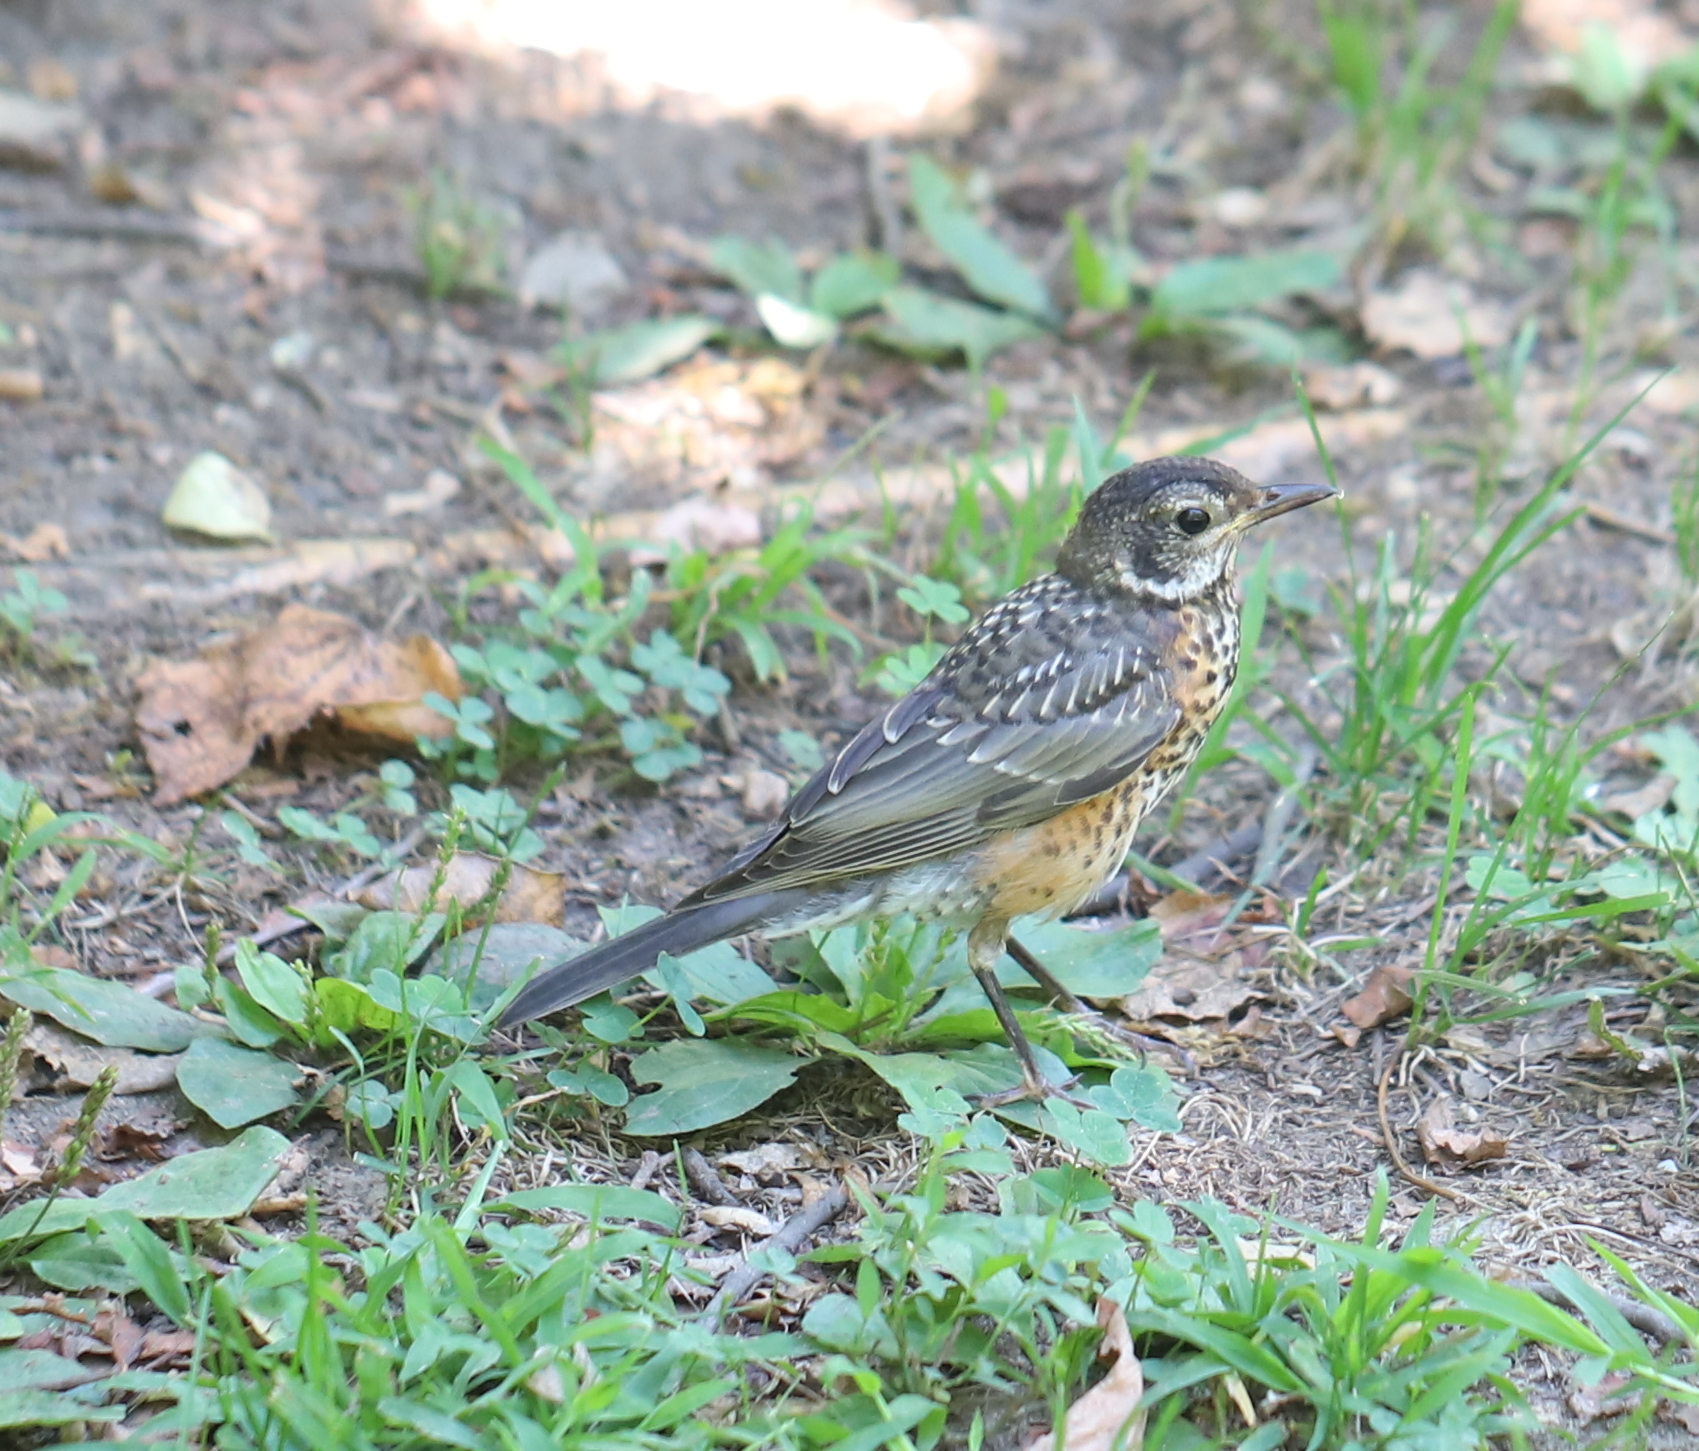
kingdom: Animalia
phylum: Chordata
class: Aves
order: Passeriformes
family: Turdidae
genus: Turdus
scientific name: Turdus migratorius
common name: American robin
